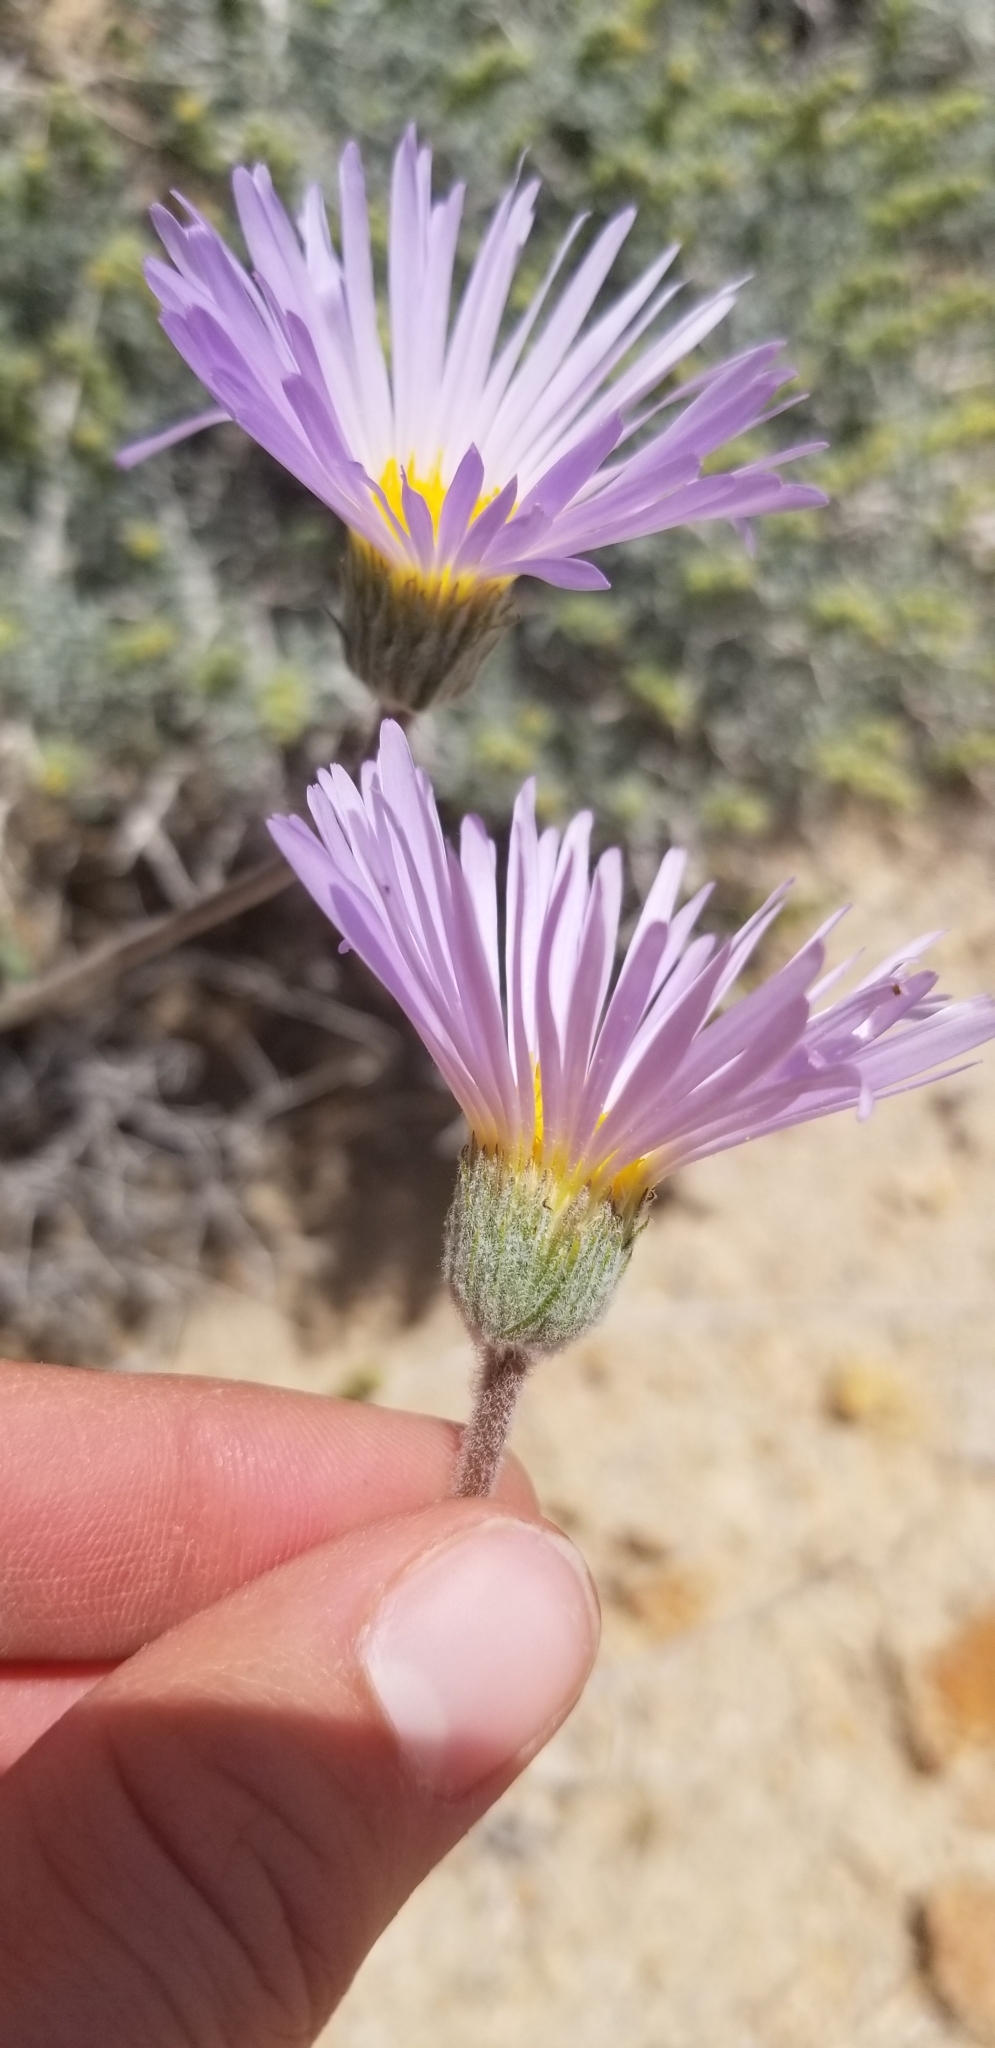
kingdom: Plantae
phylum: Tracheophyta
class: Magnoliopsida
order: Asterales
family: Asteraceae
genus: Xylorhiza
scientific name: Xylorhiza tortifolia
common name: Hurt-leaf woody-aster
